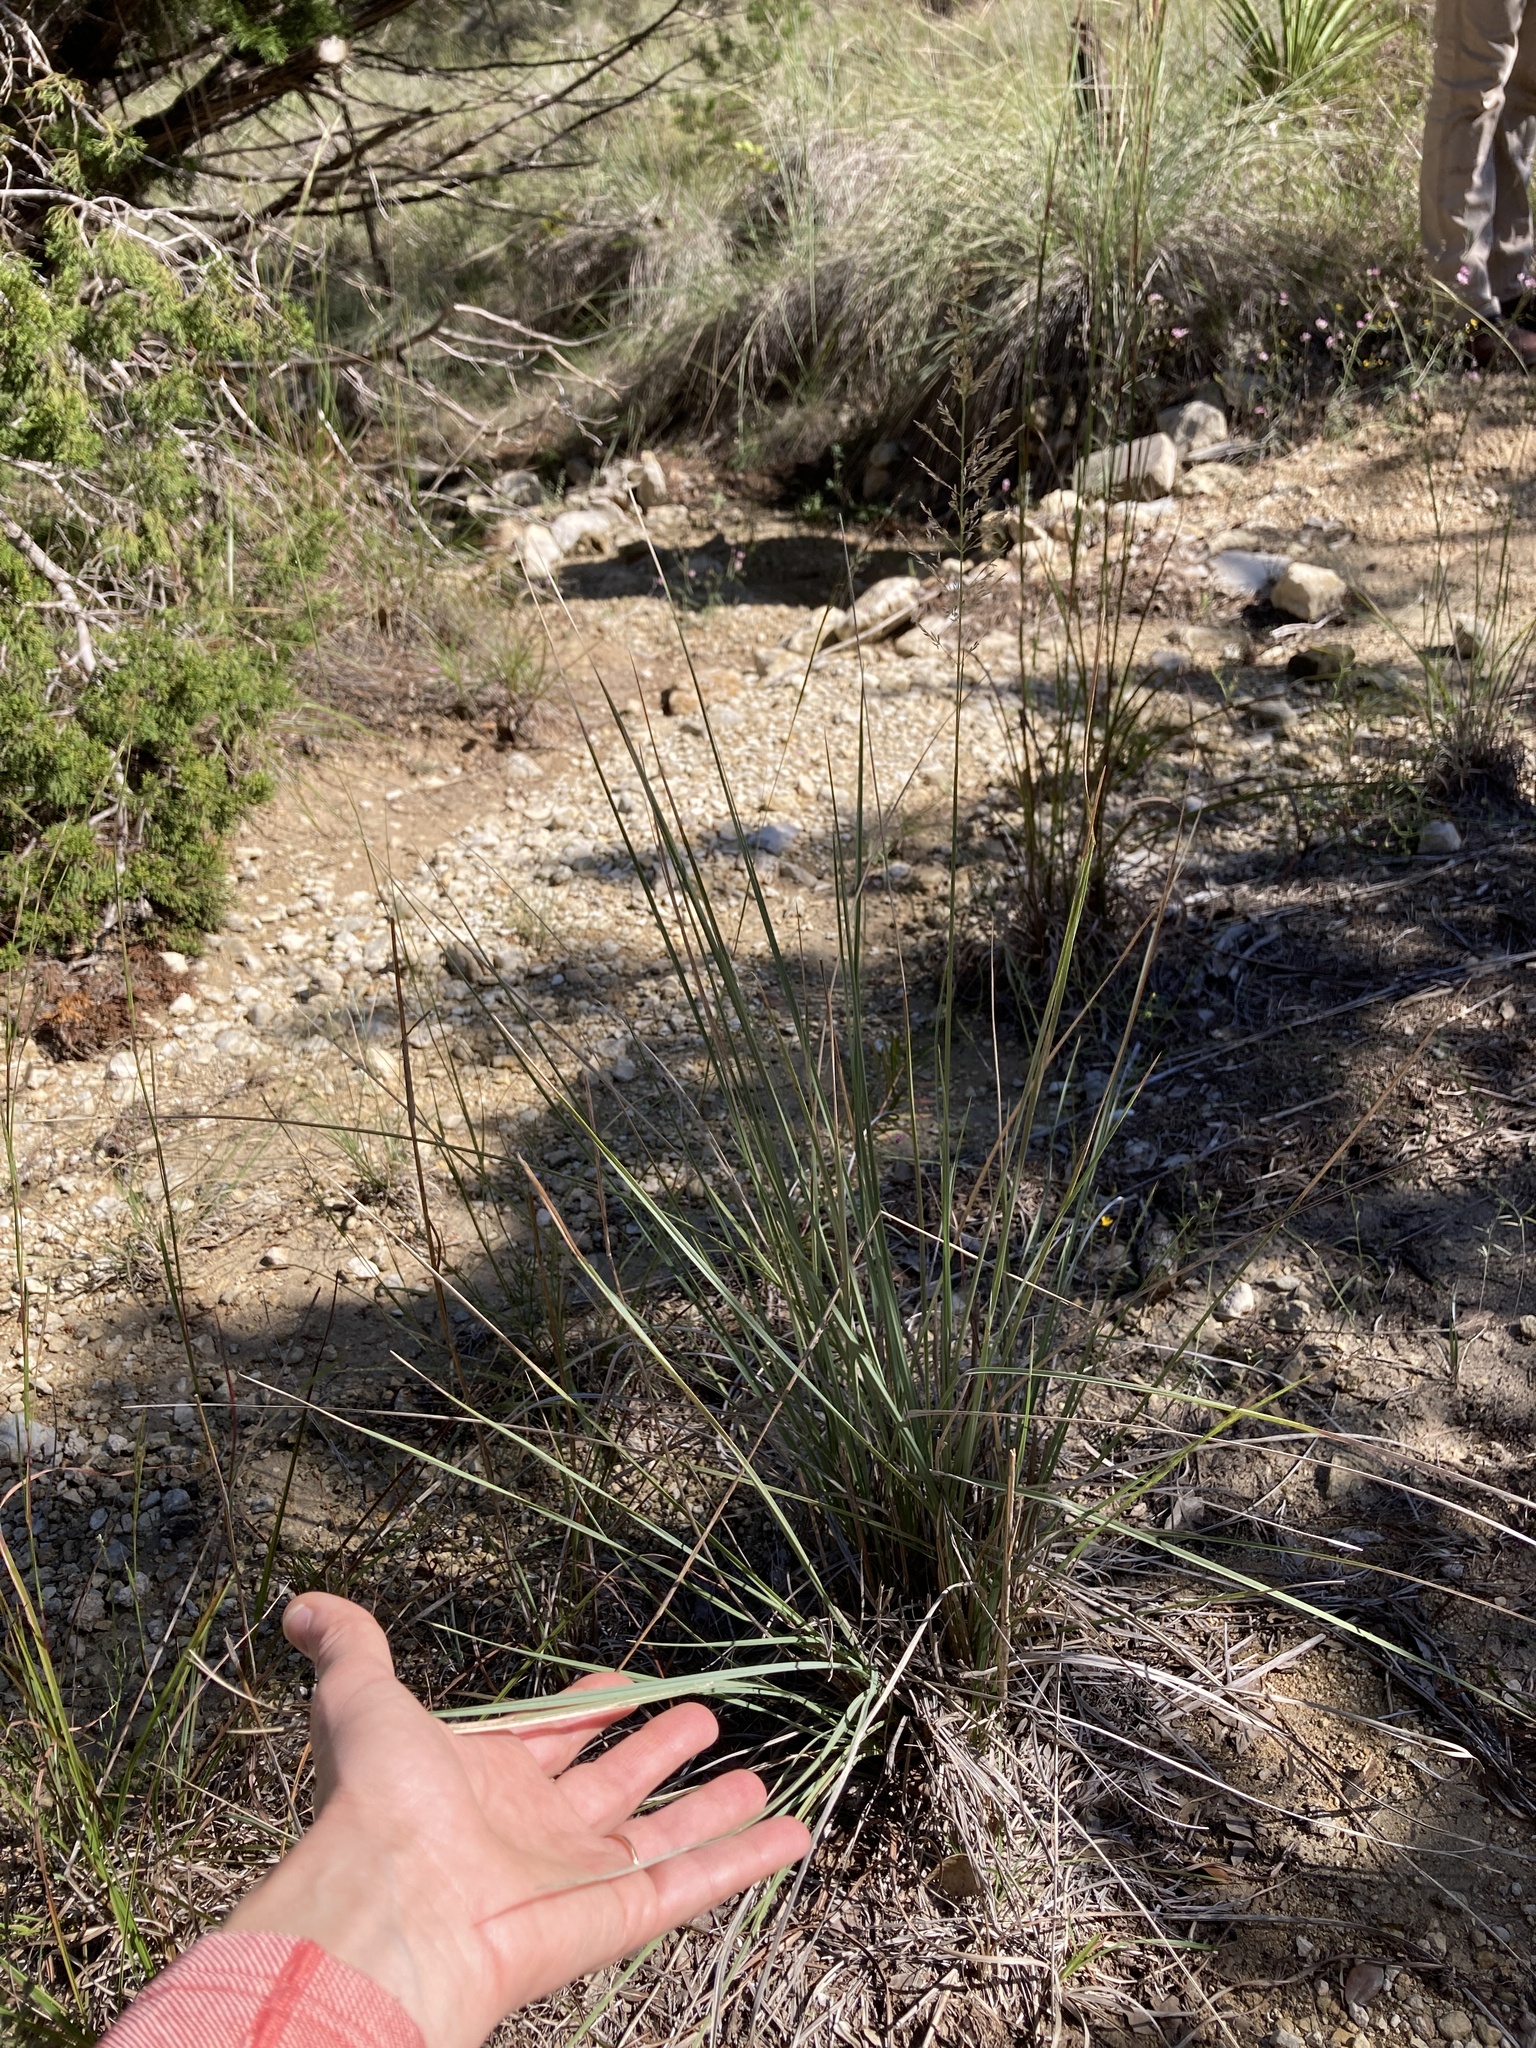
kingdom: Plantae
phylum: Tracheophyta
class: Liliopsida
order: Poales
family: Poaceae
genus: Muhlenbergia
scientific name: Muhlenbergia lindheimeri
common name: Lindheimer's muhly
